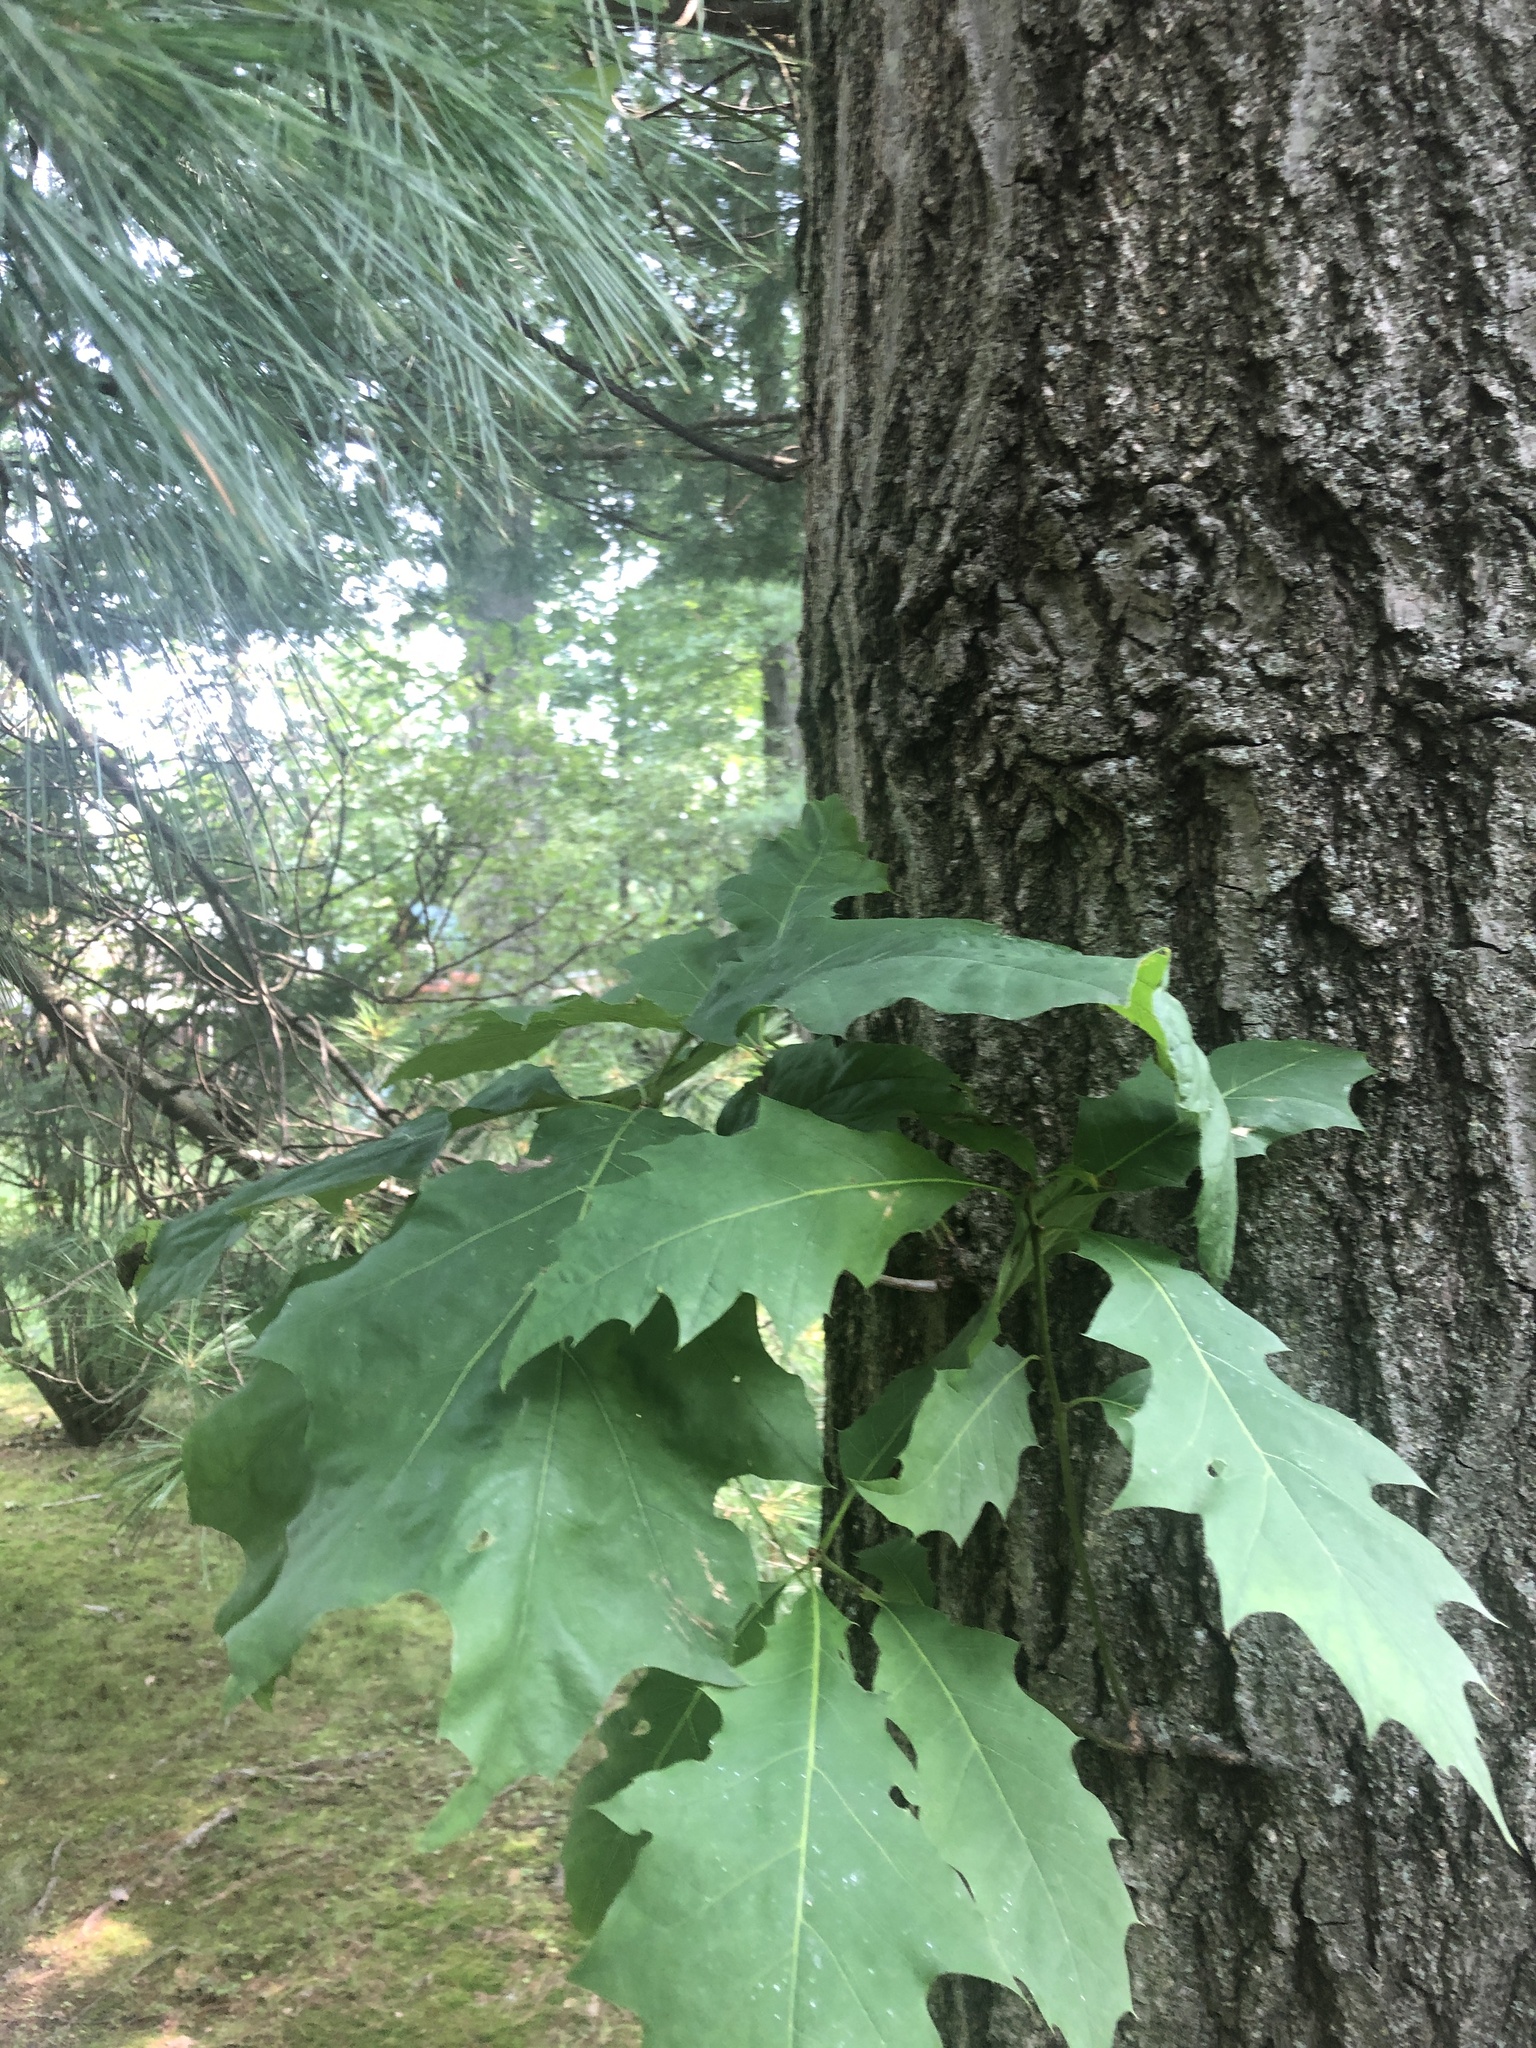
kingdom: Plantae
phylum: Tracheophyta
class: Magnoliopsida
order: Fagales
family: Fagaceae
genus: Quercus
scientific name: Quercus rubra
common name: Red oak
